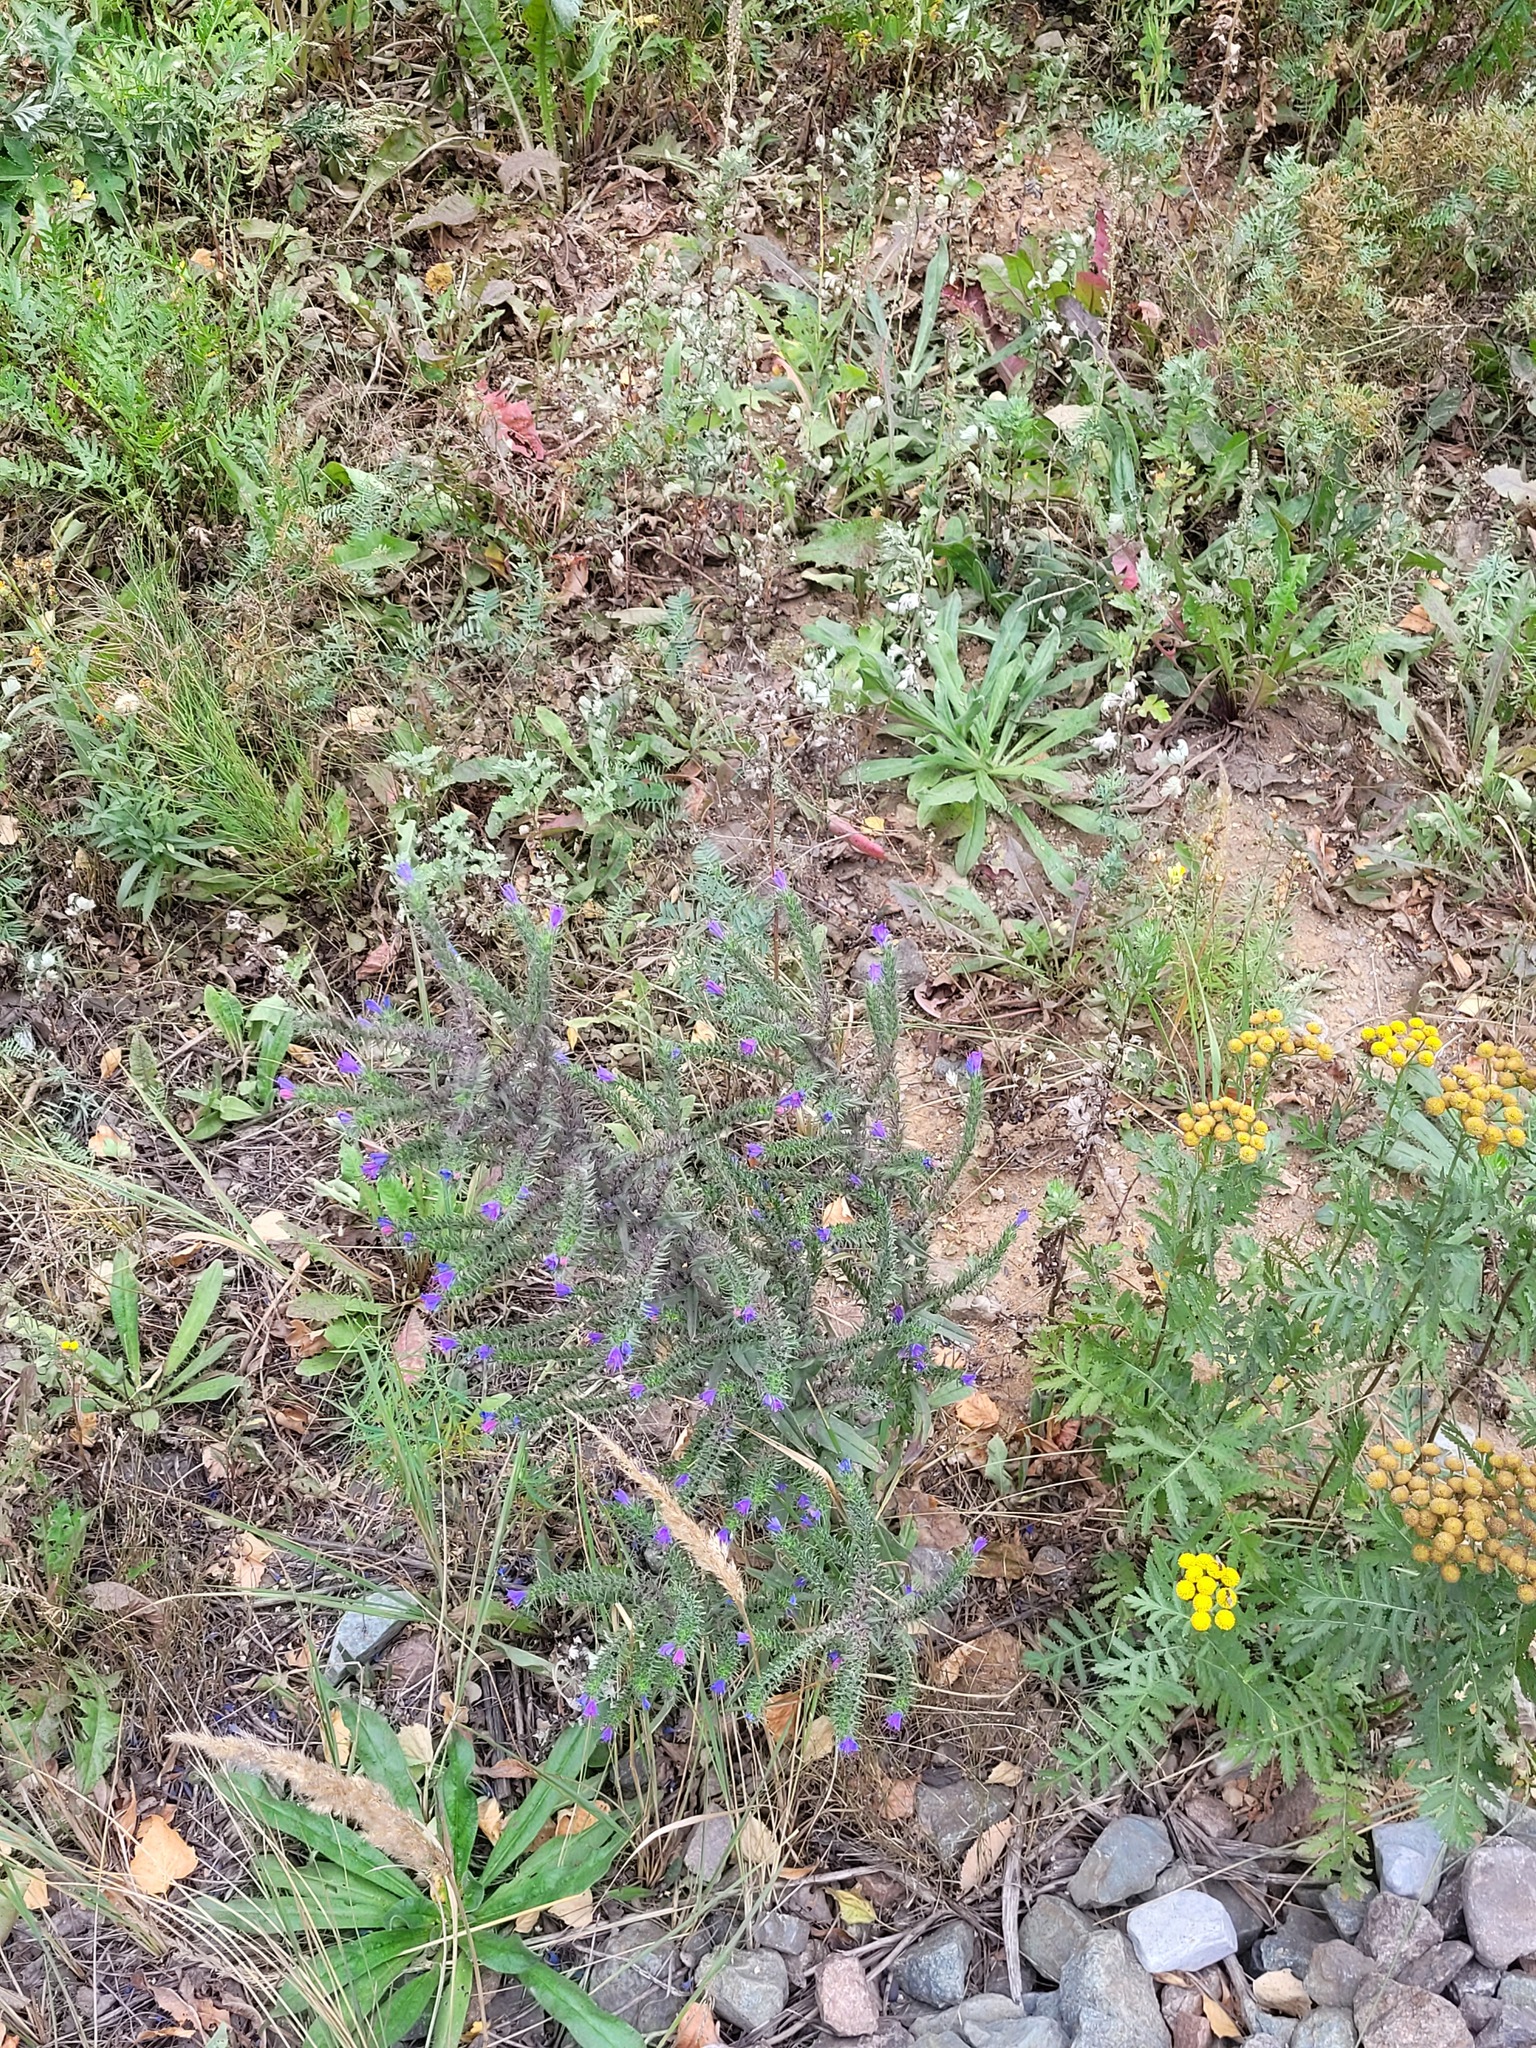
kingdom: Plantae
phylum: Tracheophyta
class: Magnoliopsida
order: Boraginales
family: Boraginaceae
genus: Echium
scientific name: Echium vulgare
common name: Common viper's bugloss
